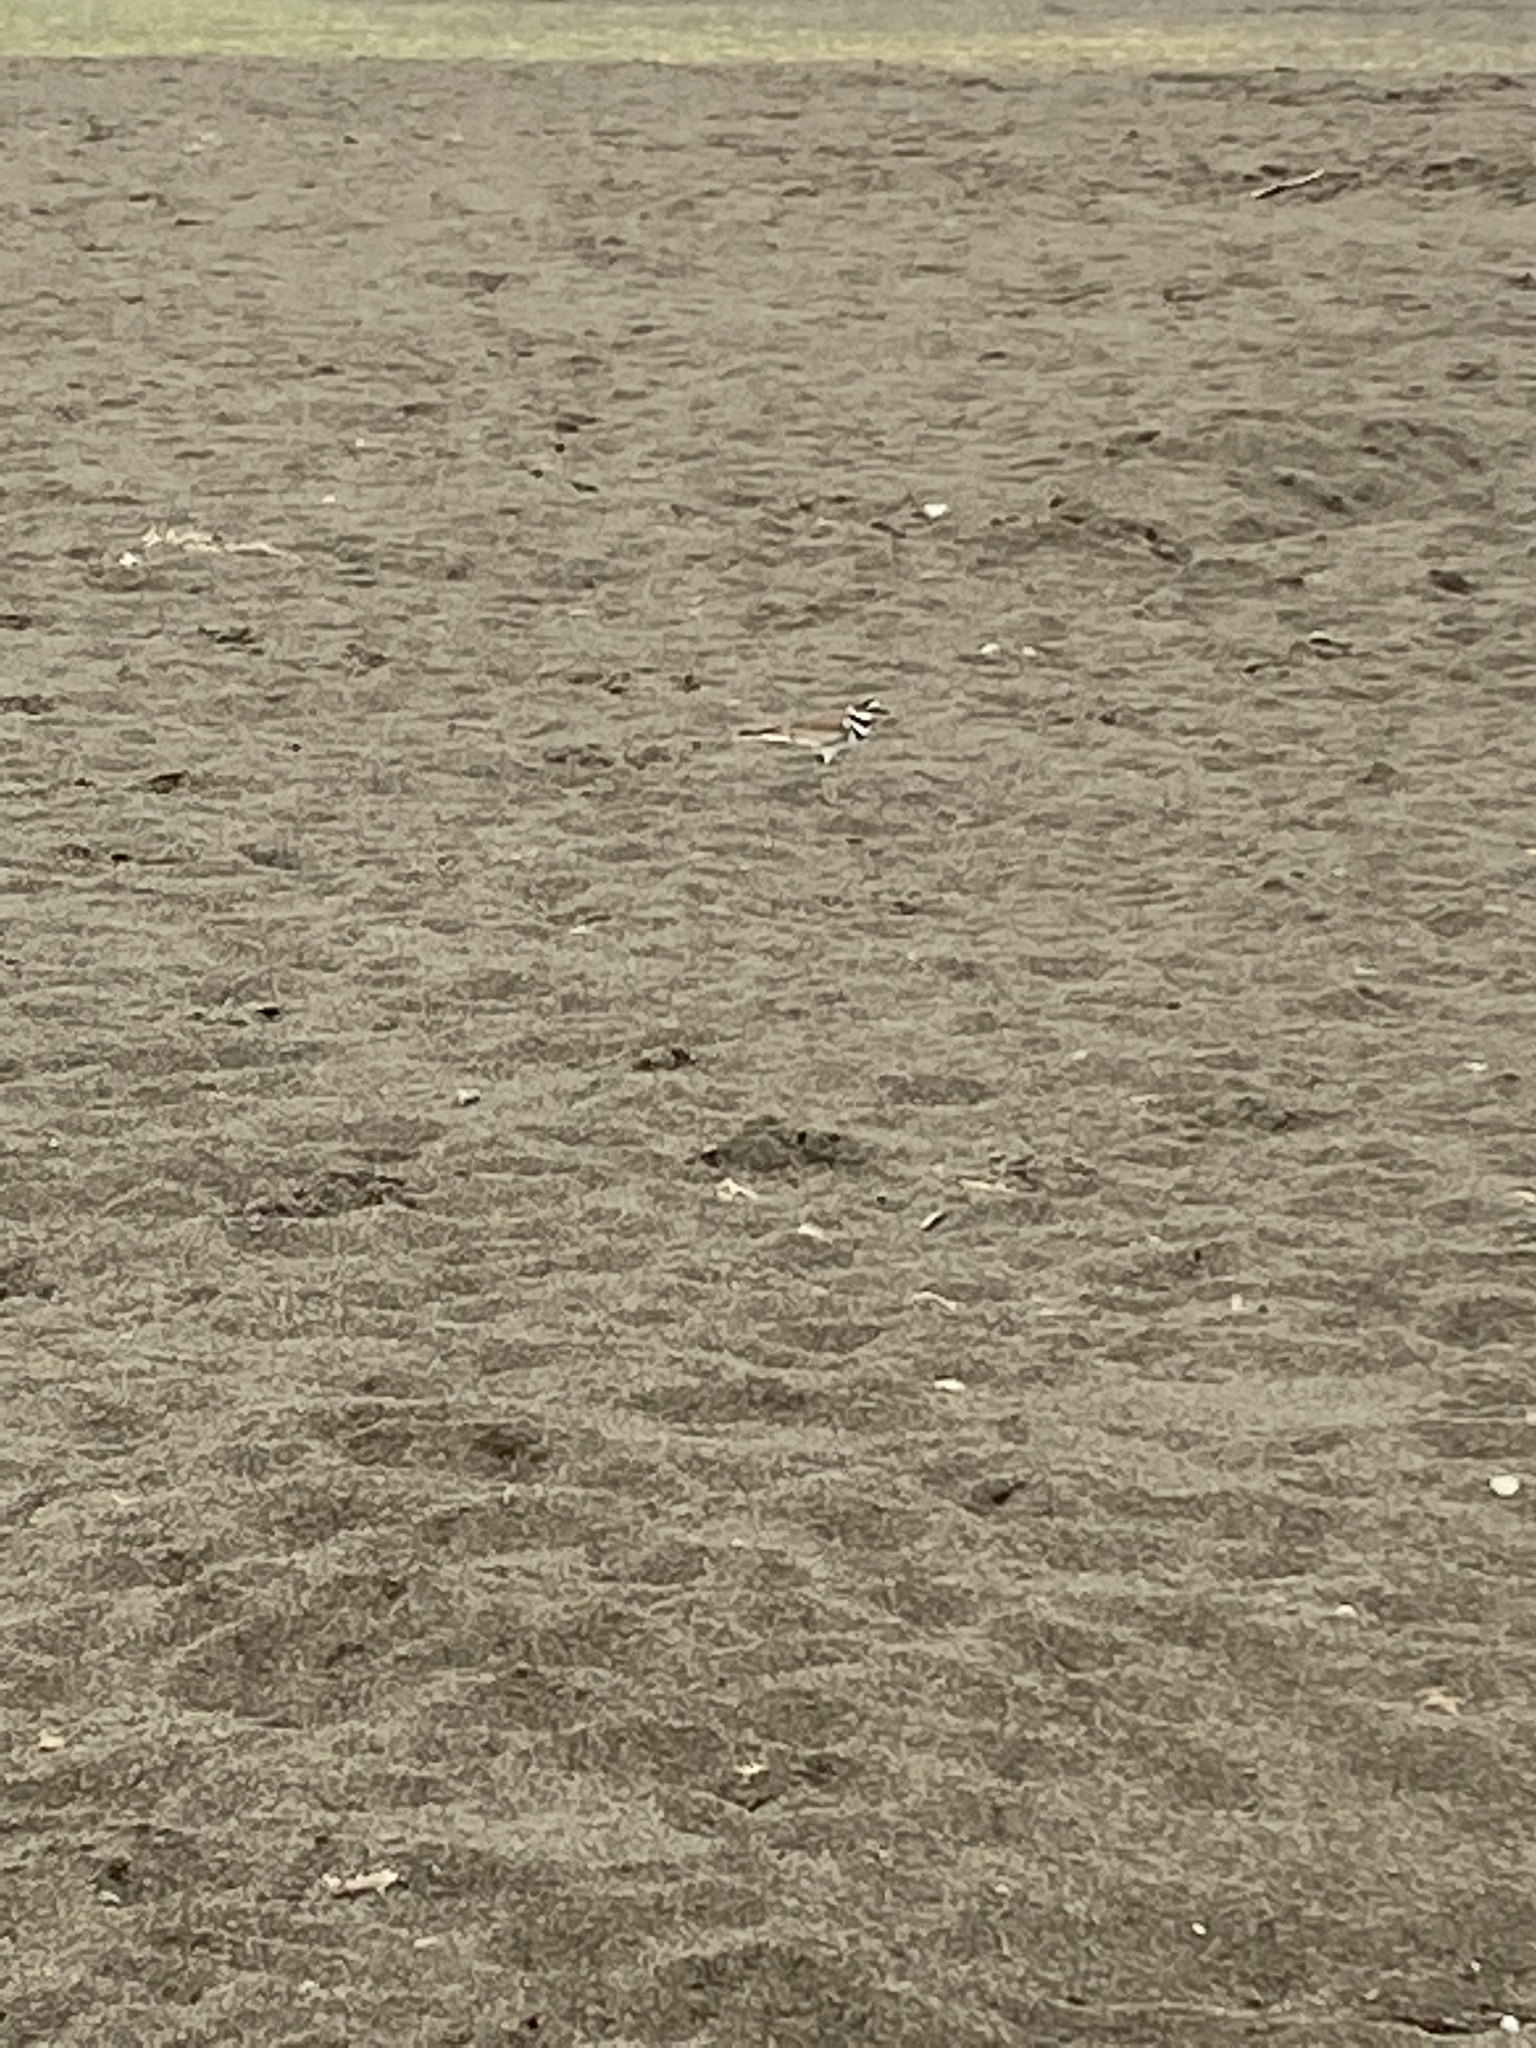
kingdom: Animalia
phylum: Chordata
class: Aves
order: Charadriiformes
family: Charadriidae
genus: Charadrius
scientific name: Charadrius vociferus
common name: Killdeer
